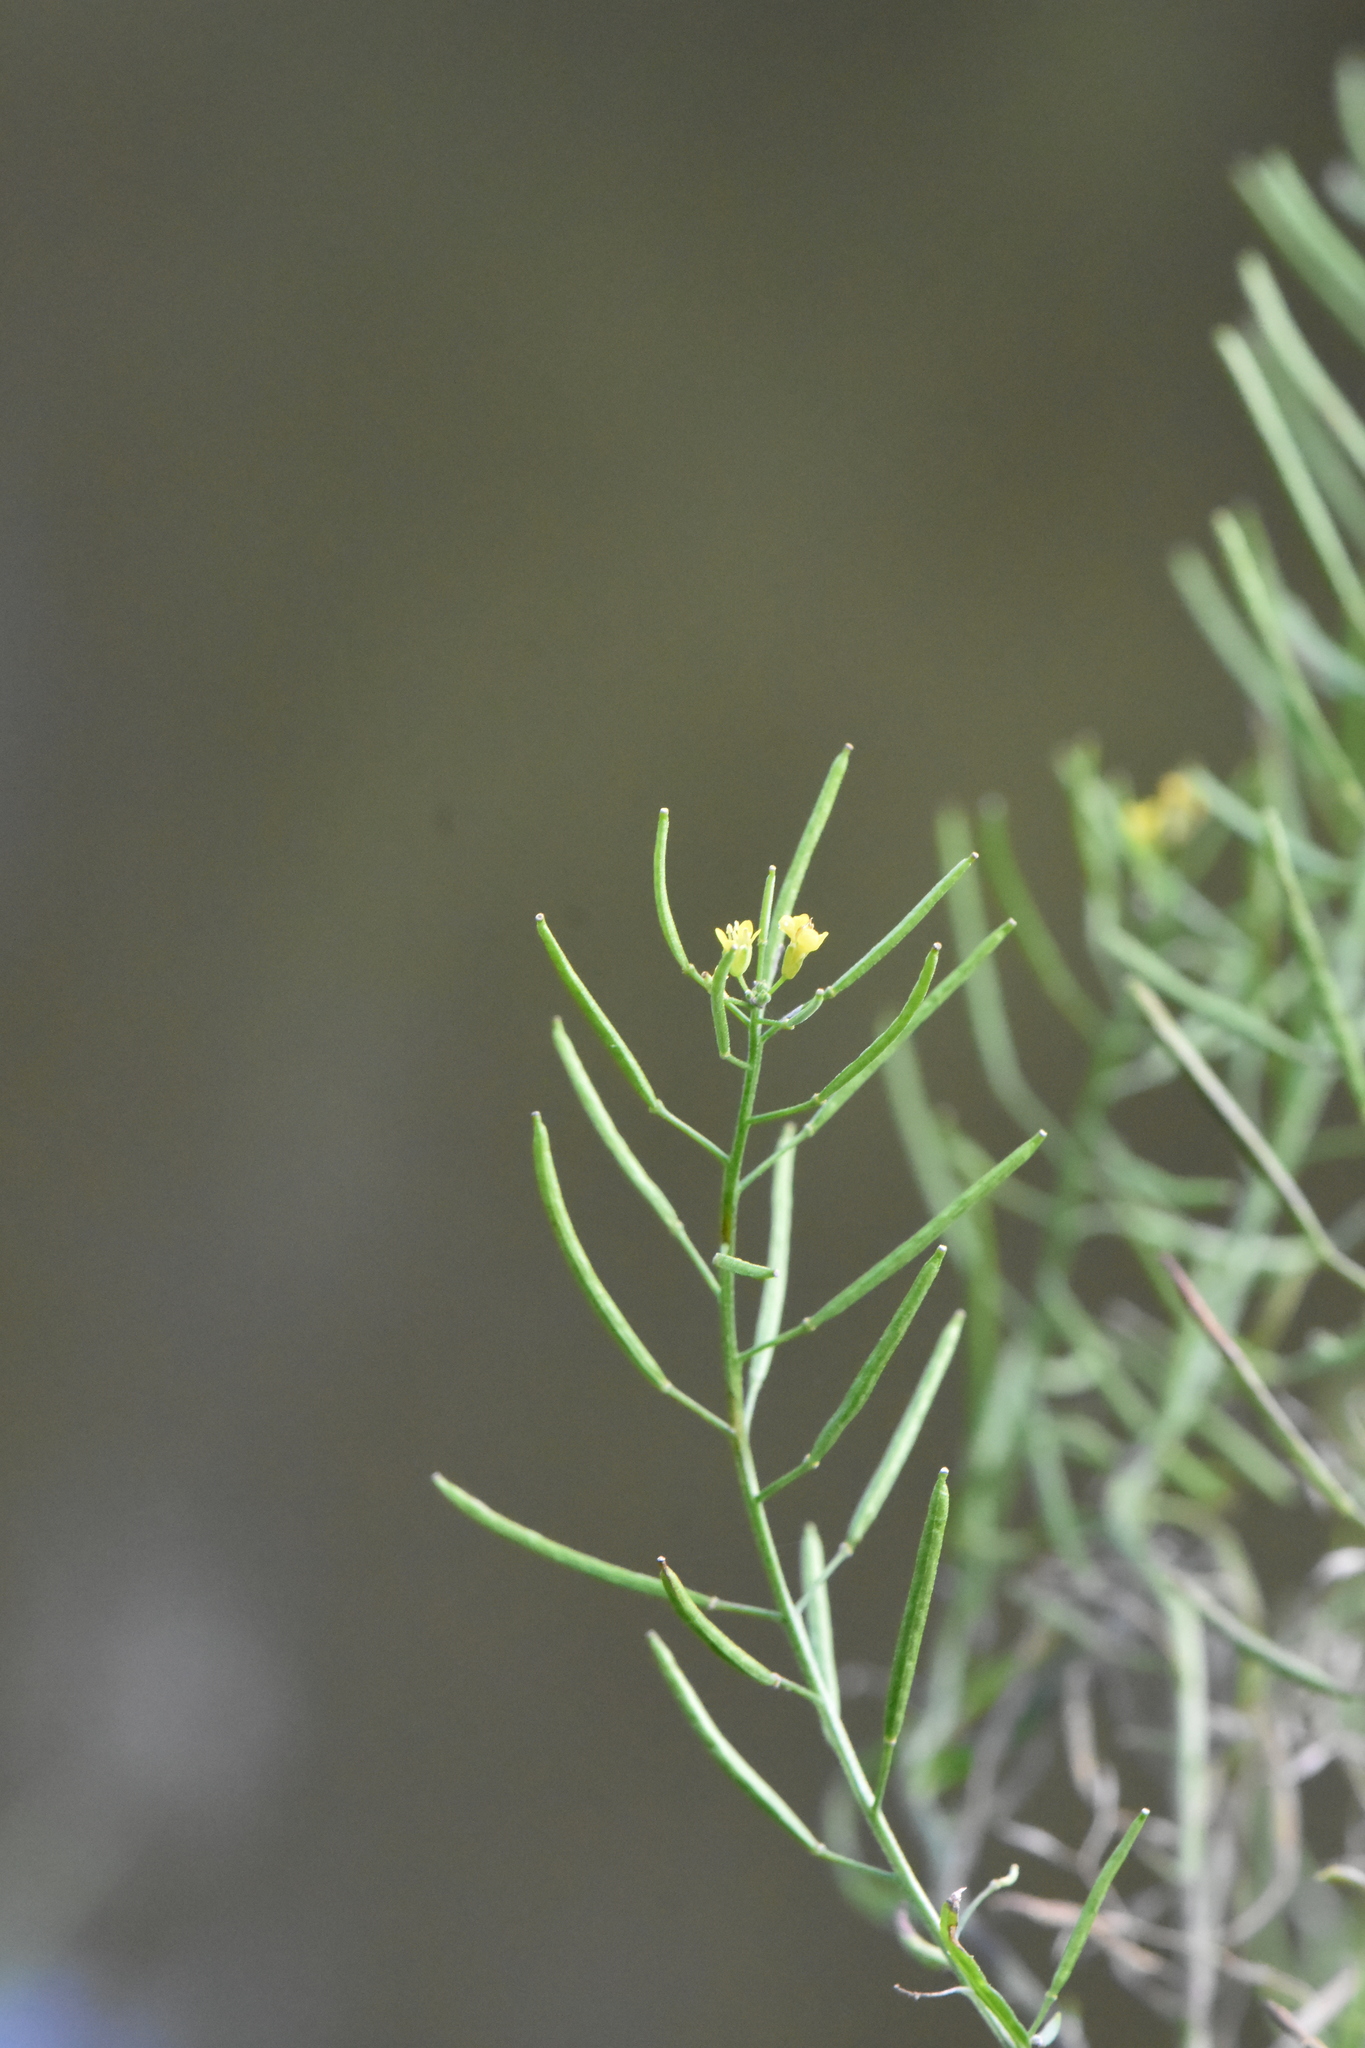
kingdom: Plantae
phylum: Tracheophyta
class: Magnoliopsida
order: Brassicales
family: Brassicaceae
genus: Erysimum
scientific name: Erysimum cheiranthoides
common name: Treacle mustard
